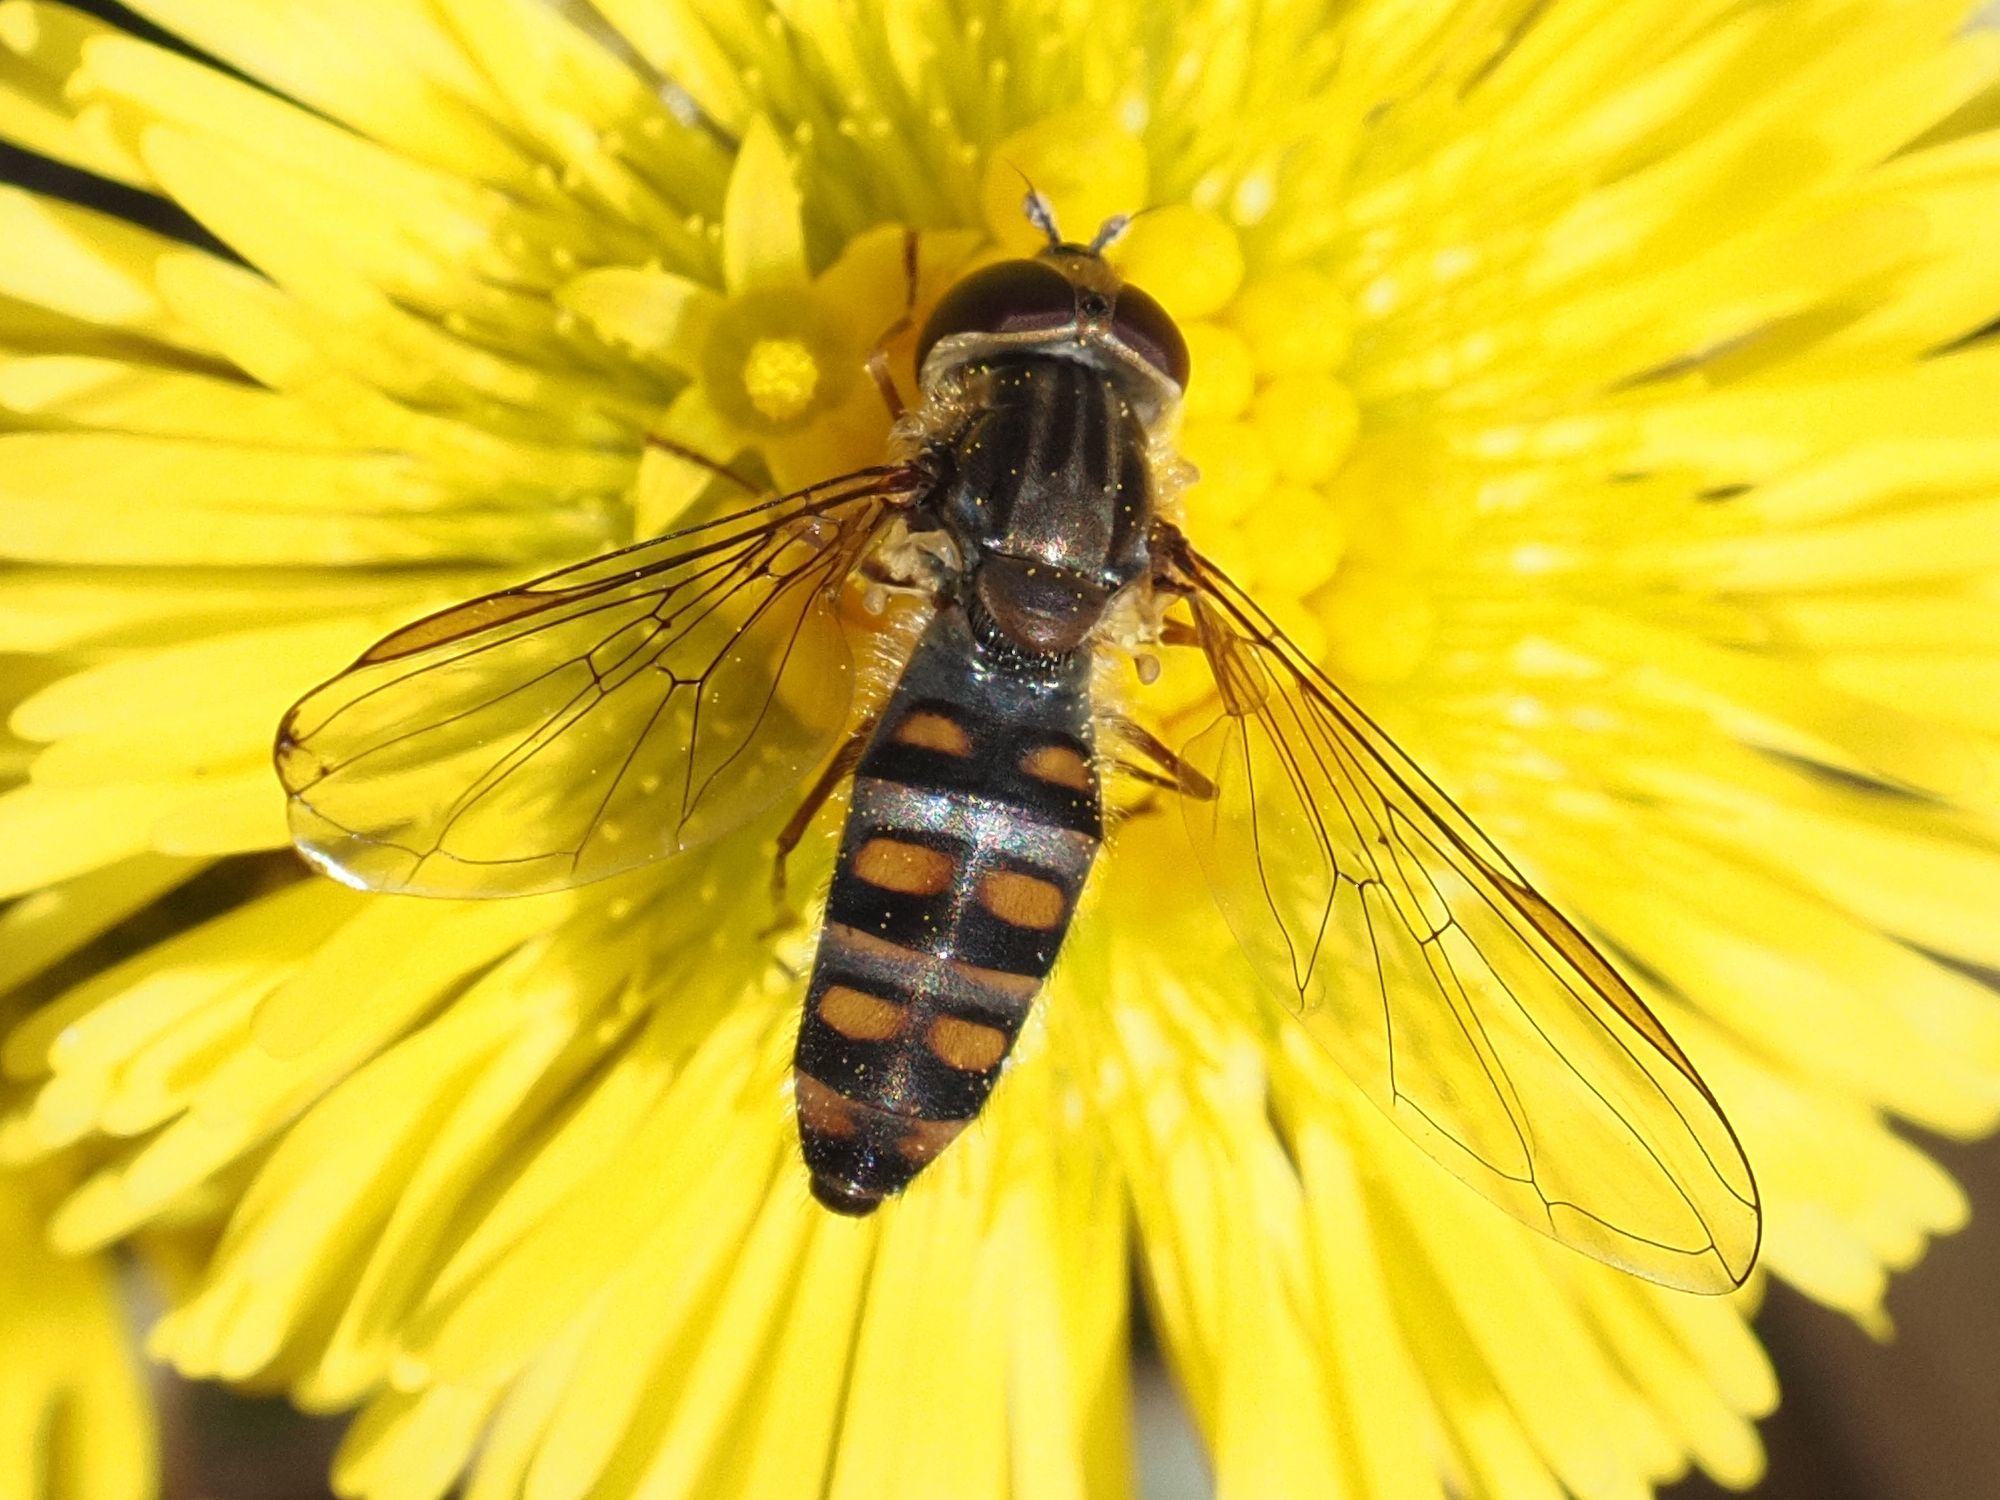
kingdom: Animalia
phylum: Arthropoda
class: Insecta
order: Diptera
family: Syrphidae
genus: Episyrphus
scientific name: Episyrphus balteatus
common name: Marmalade hoverfly
